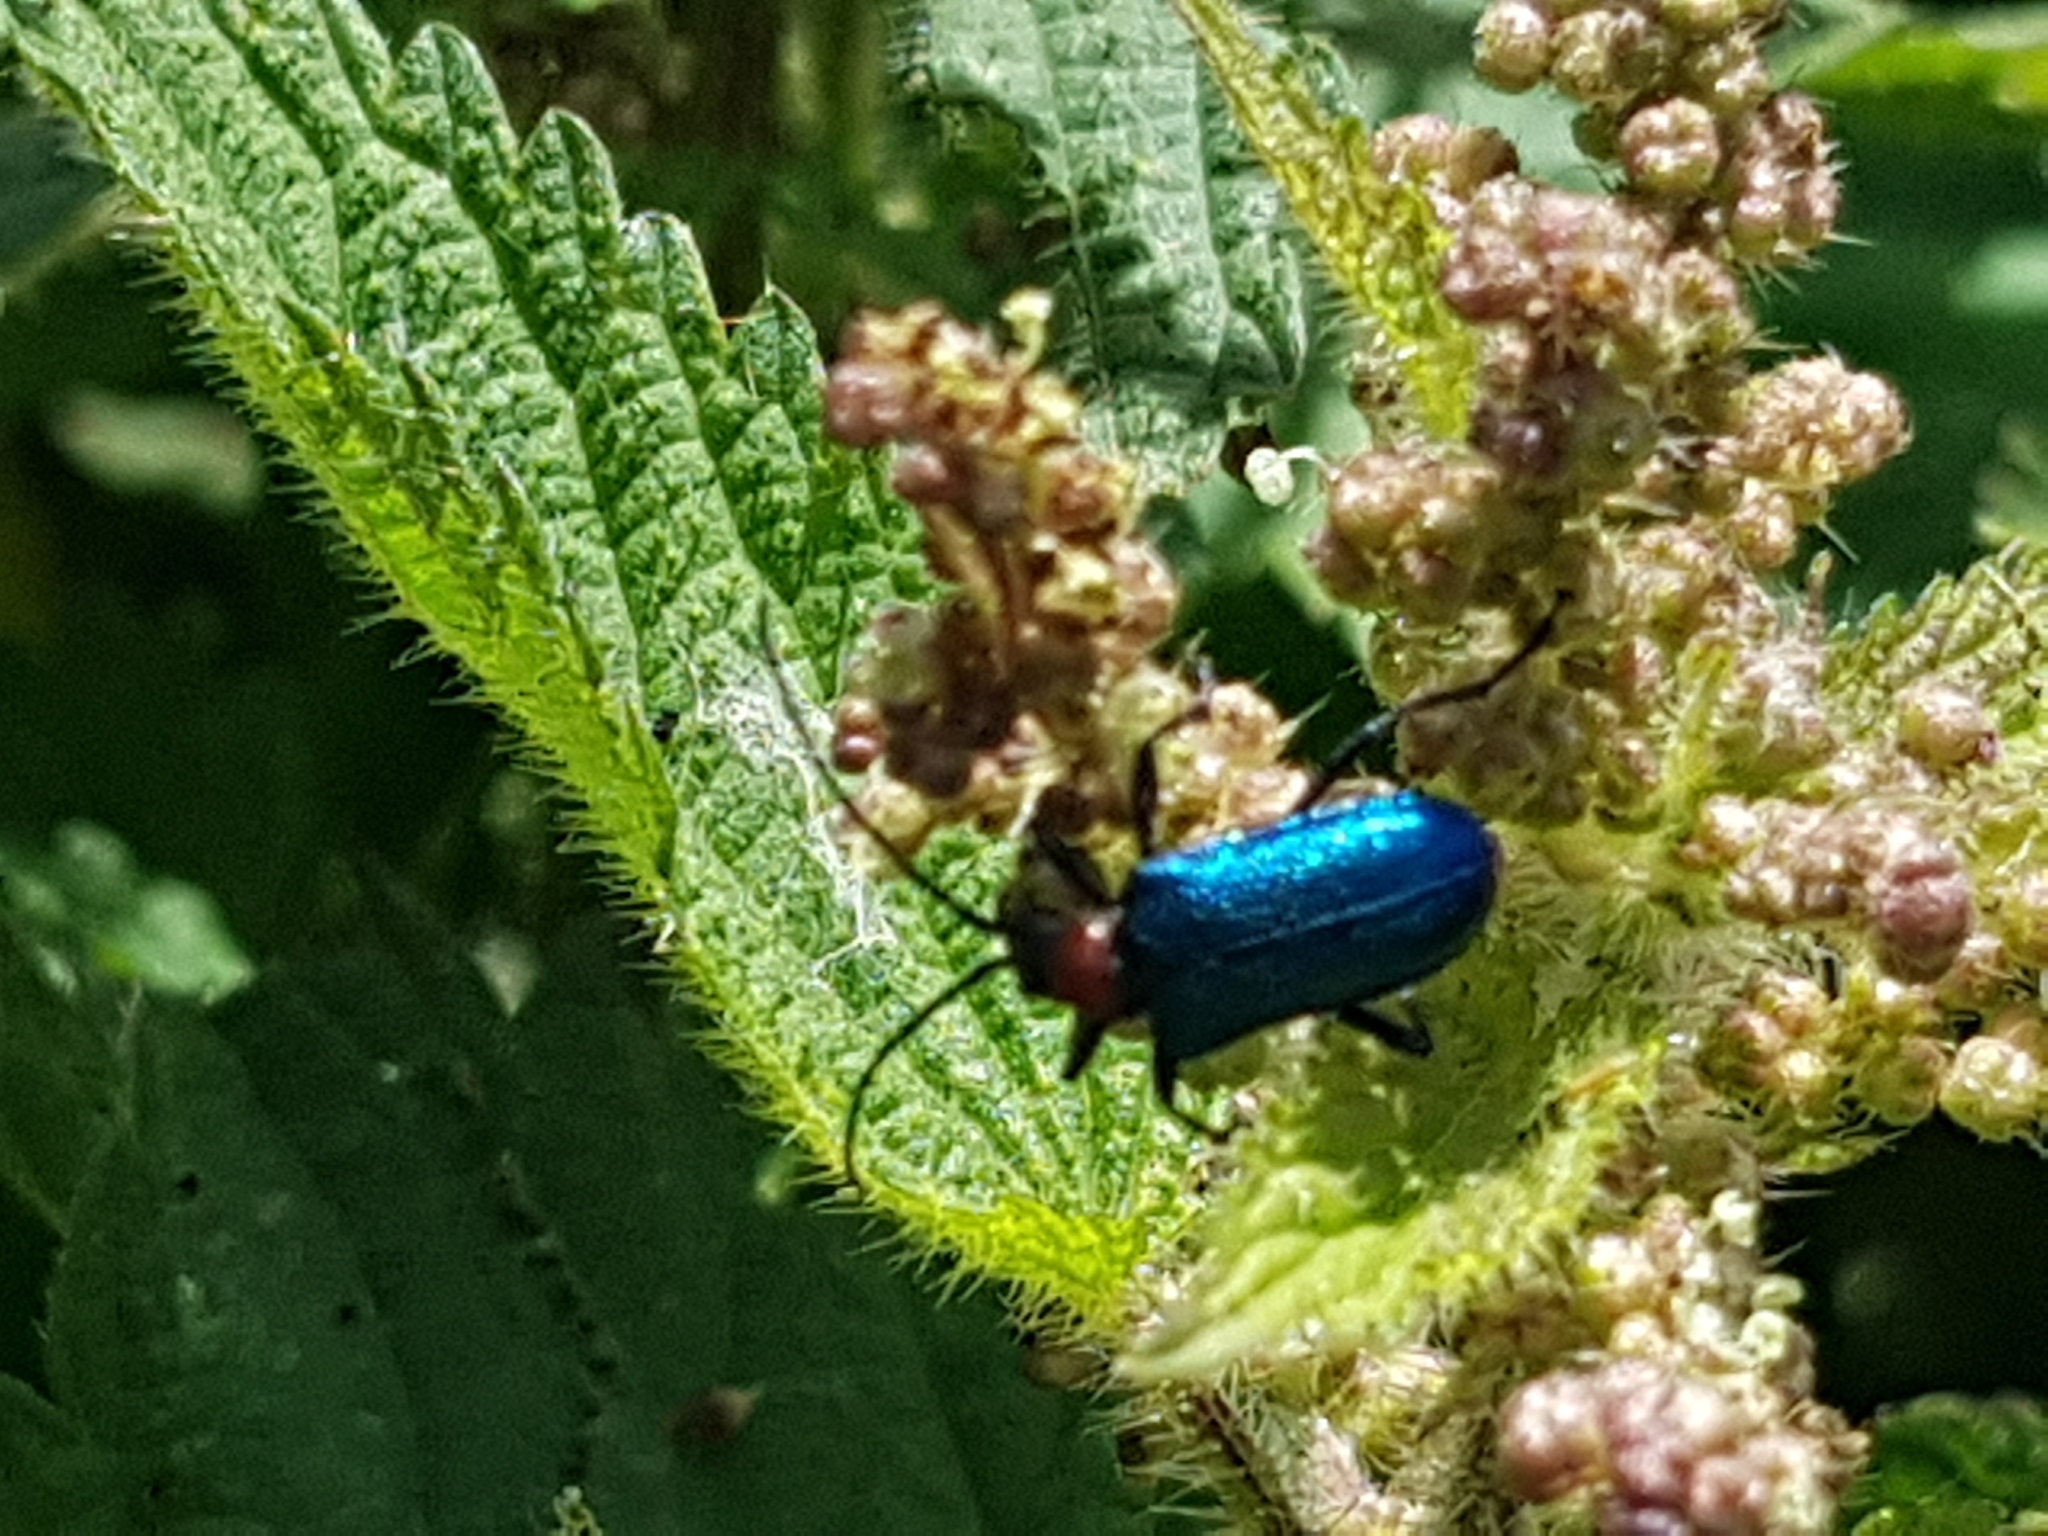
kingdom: Animalia
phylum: Arthropoda
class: Insecta
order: Coleoptera
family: Cerambycidae
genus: Gaurotes
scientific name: Gaurotes virginea
